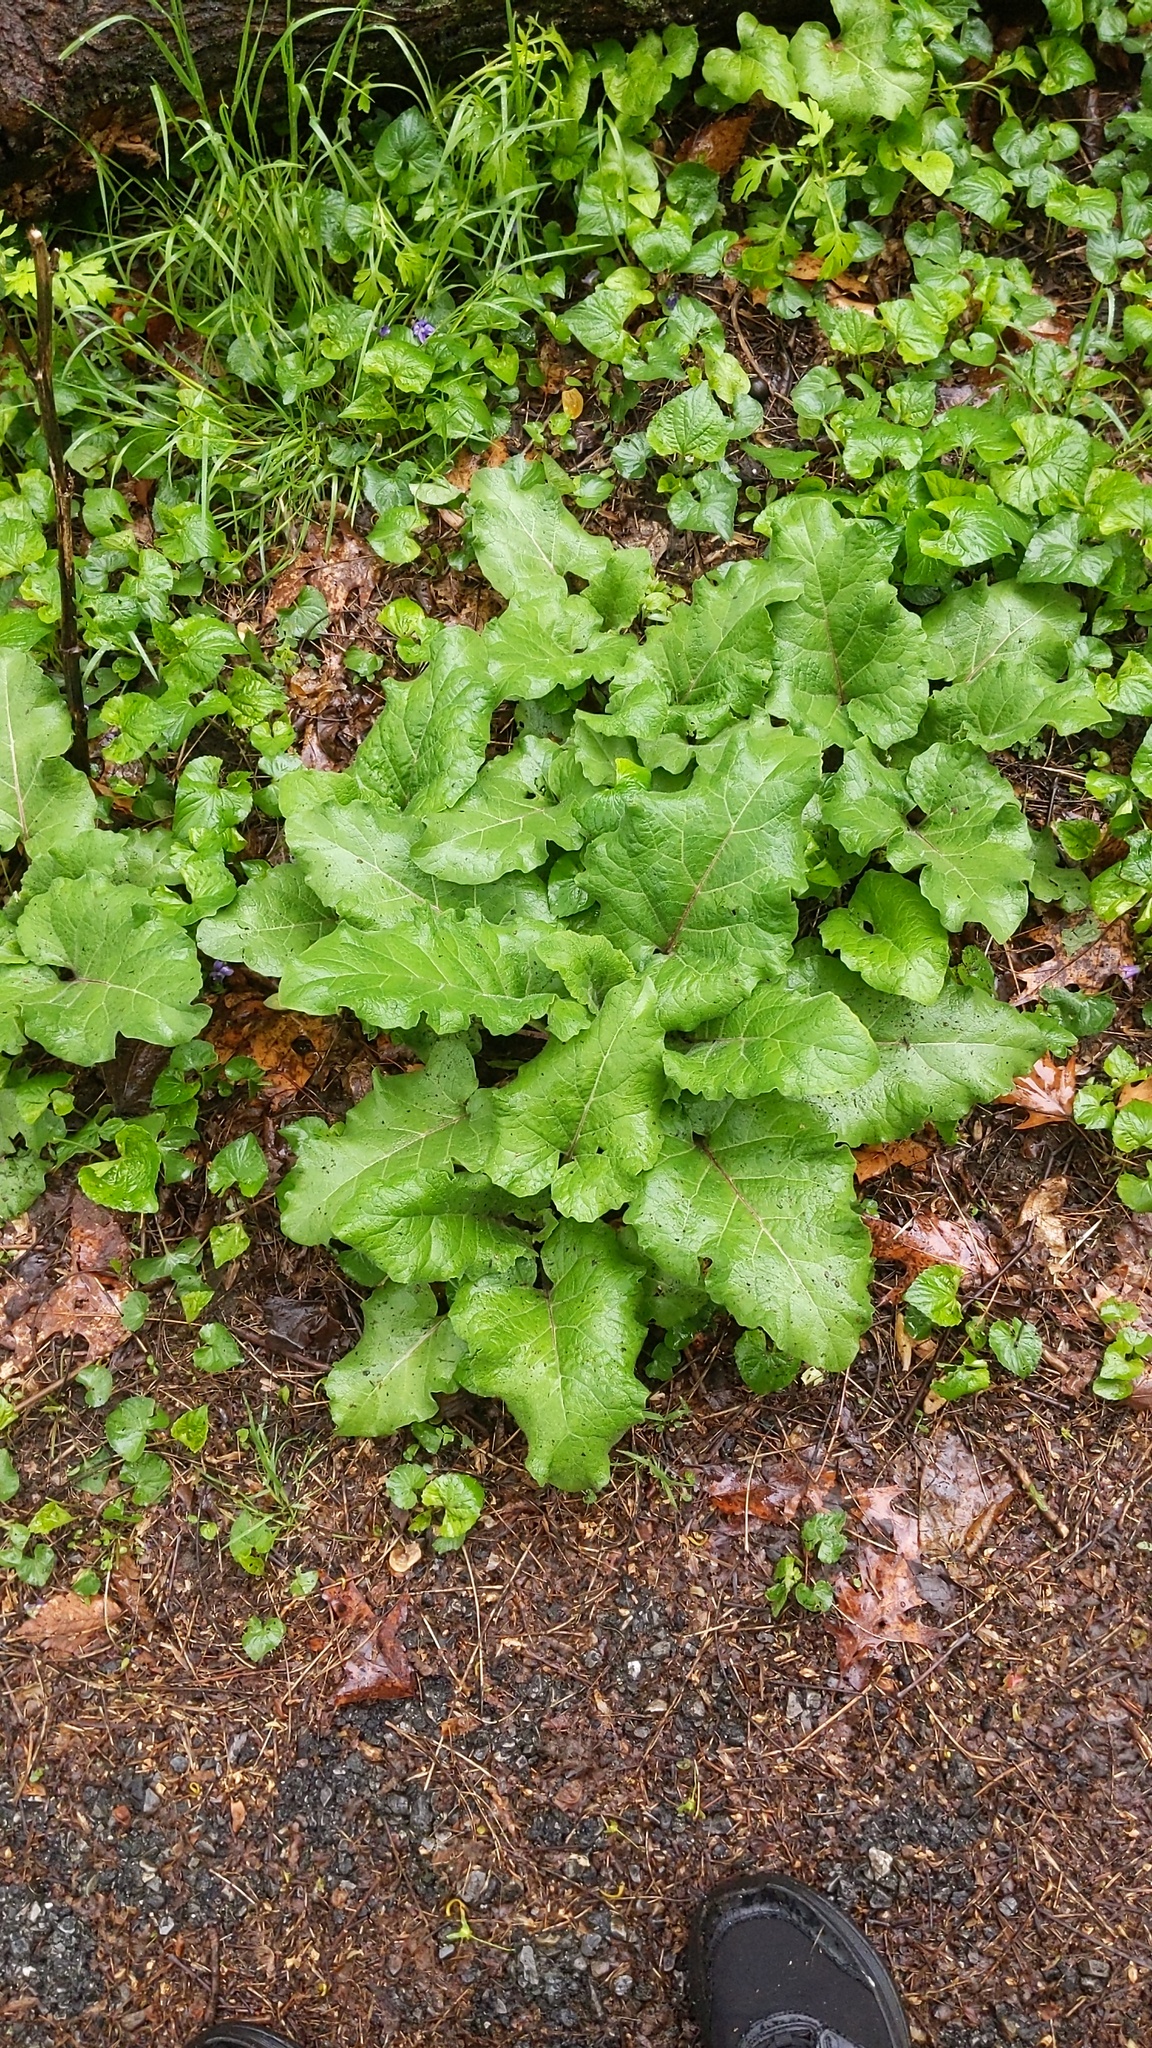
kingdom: Plantae
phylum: Tracheophyta
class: Magnoliopsida
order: Asterales
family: Asteraceae
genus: Arctium
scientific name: Arctium
